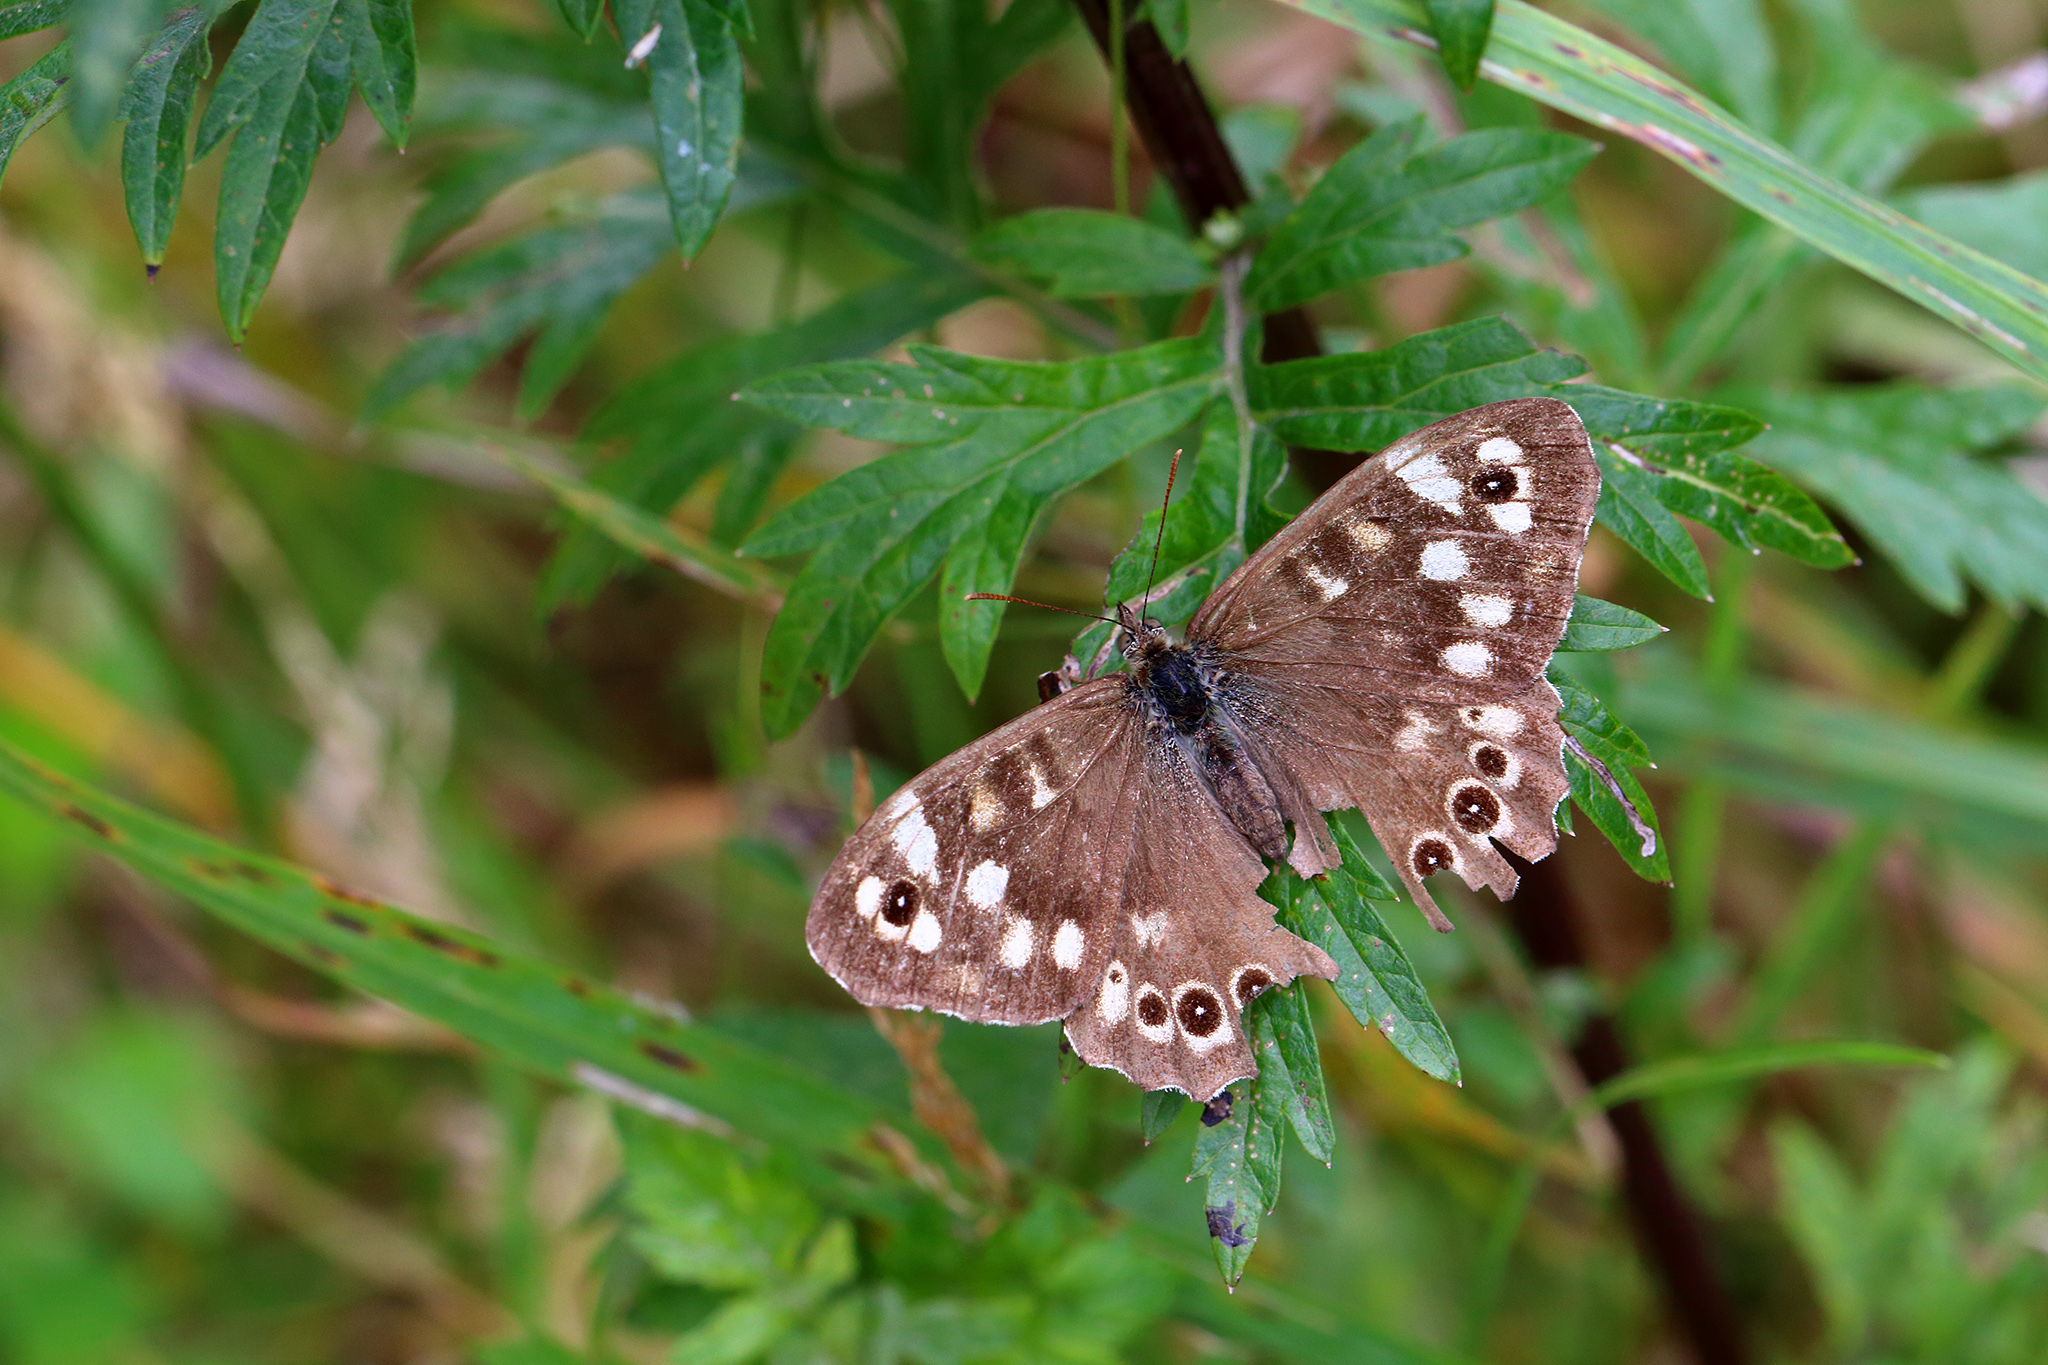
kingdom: Animalia
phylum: Arthropoda
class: Insecta
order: Lepidoptera
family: Nymphalidae
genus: Pararge
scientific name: Pararge aegeria
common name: Speckled wood
